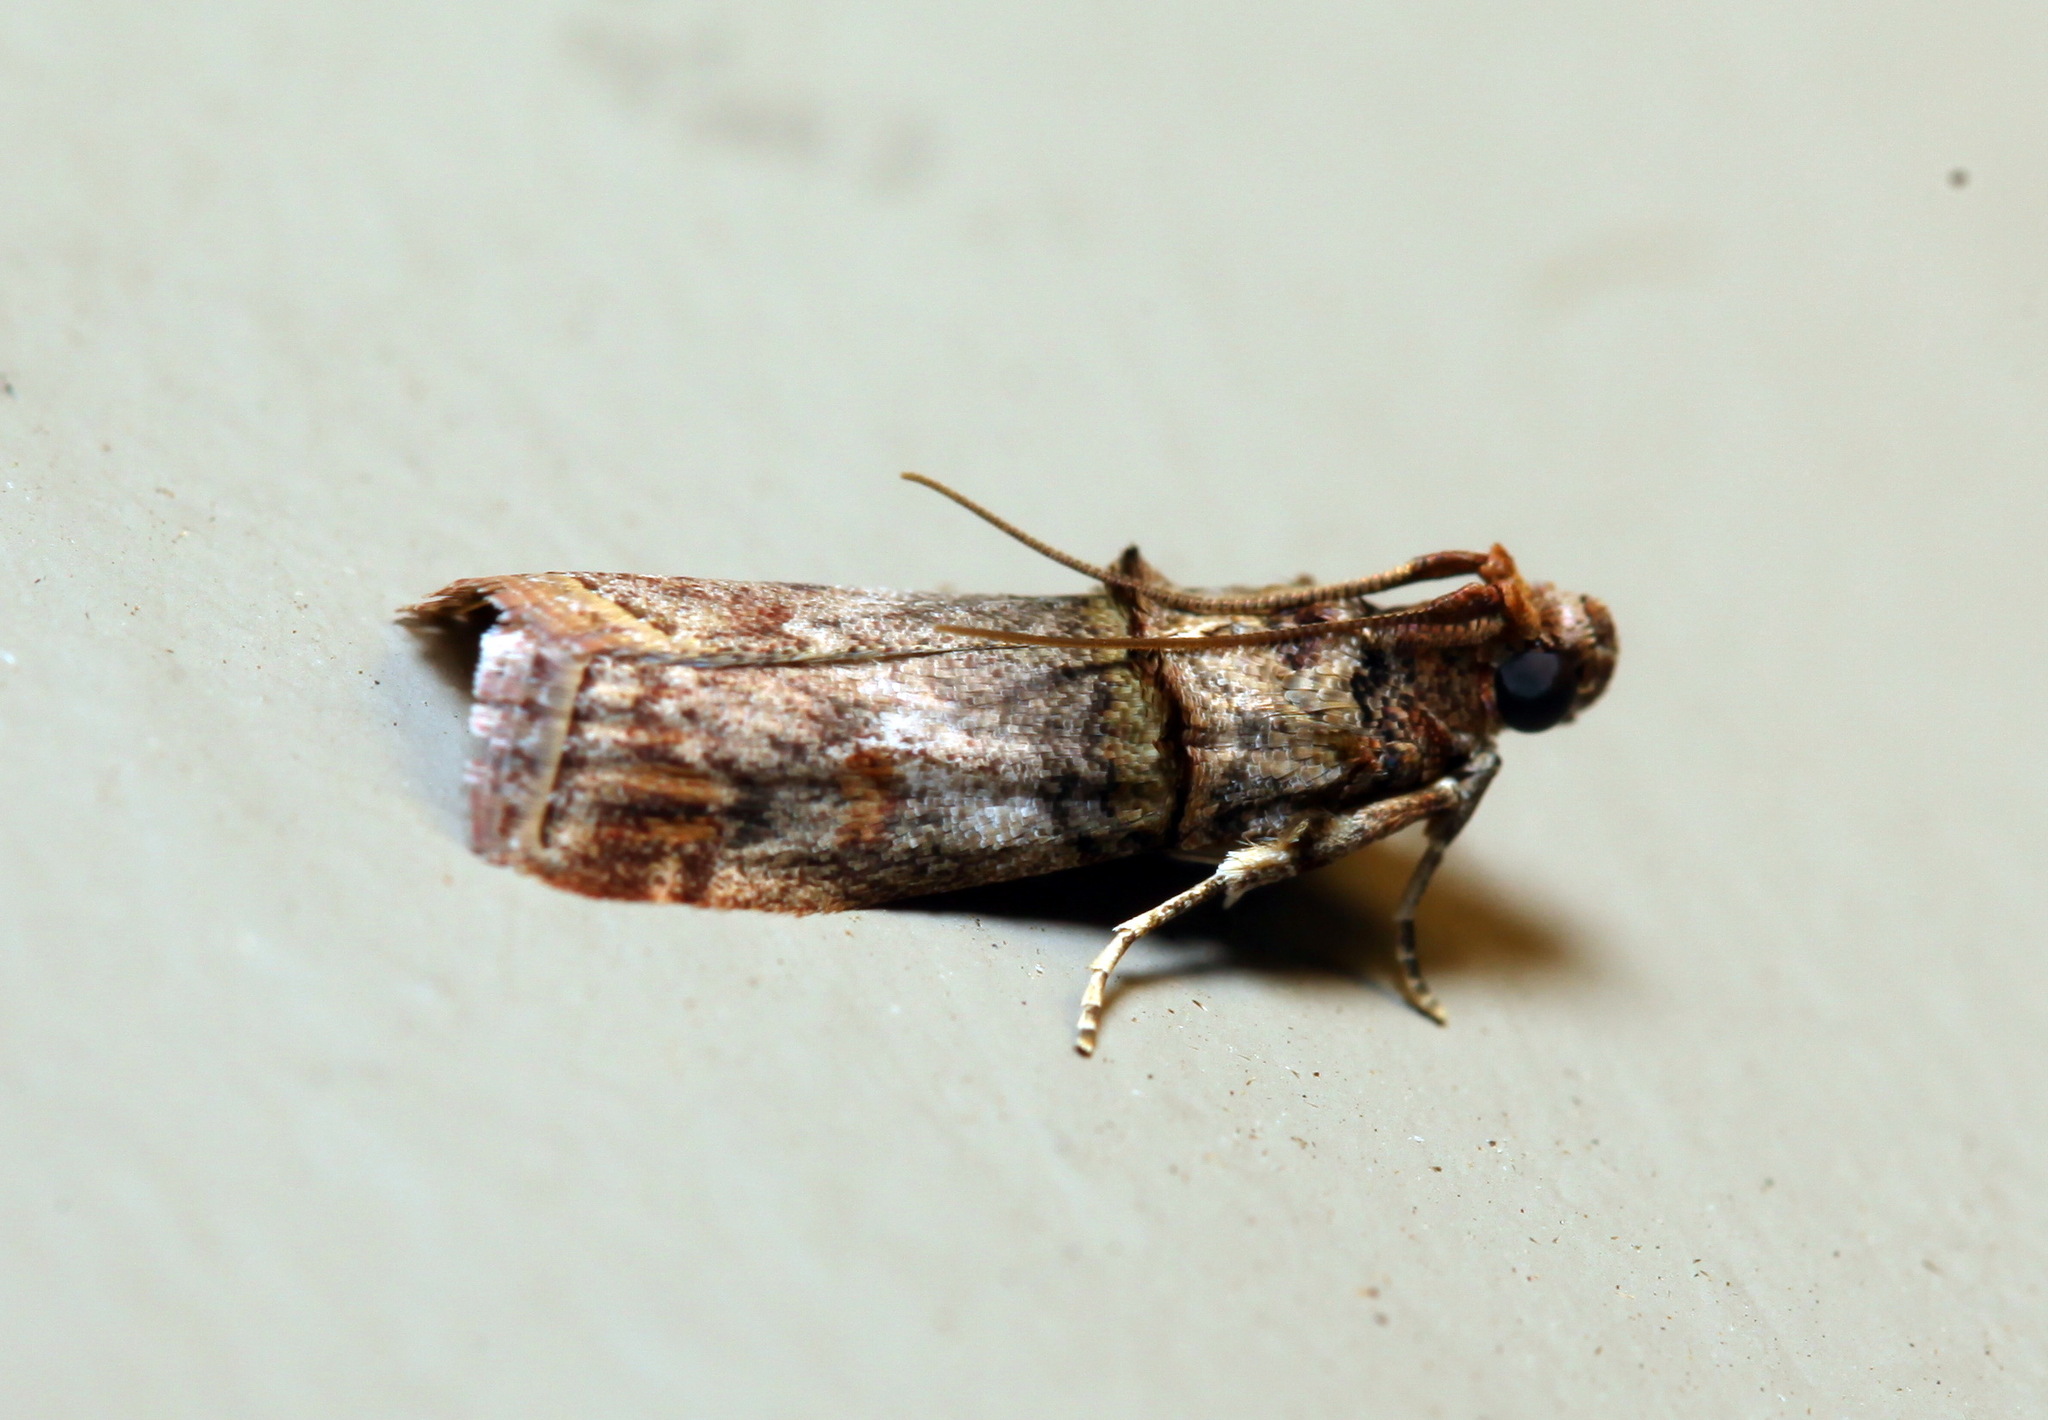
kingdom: Animalia
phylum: Arthropoda
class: Insecta
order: Lepidoptera
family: Pyralidae
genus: Hypargyria
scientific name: Hypargyria metalliferella
